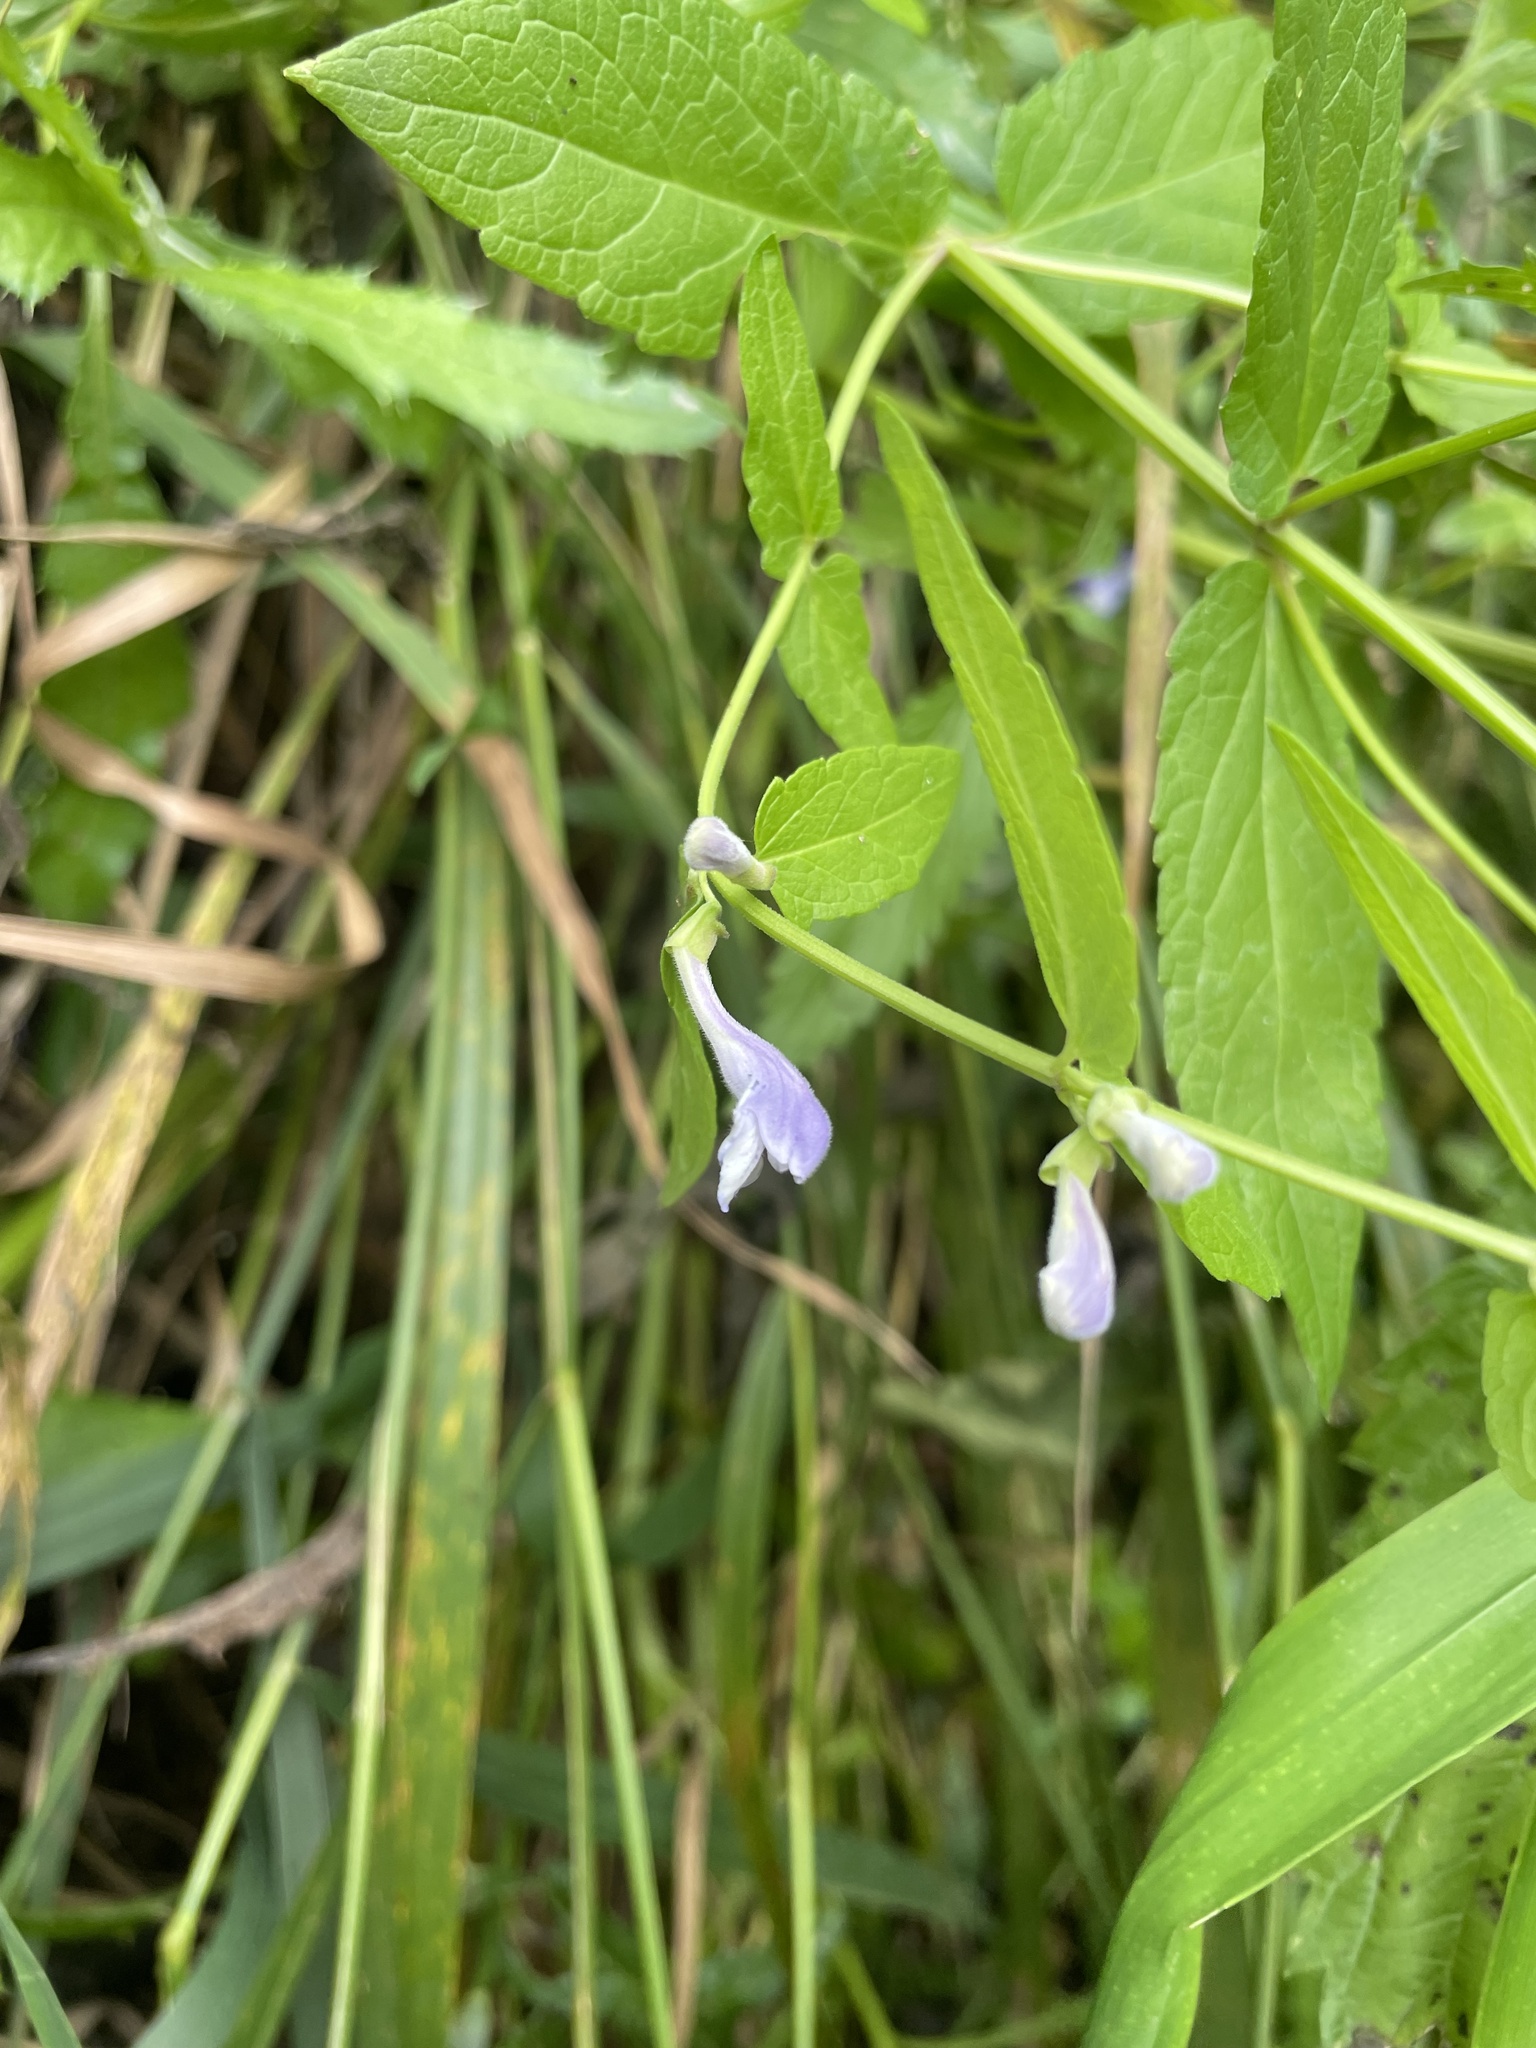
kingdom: Plantae
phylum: Tracheophyta
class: Magnoliopsida
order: Lamiales
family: Lamiaceae
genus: Scutellaria
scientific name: Scutellaria galericulata
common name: Skullcap
